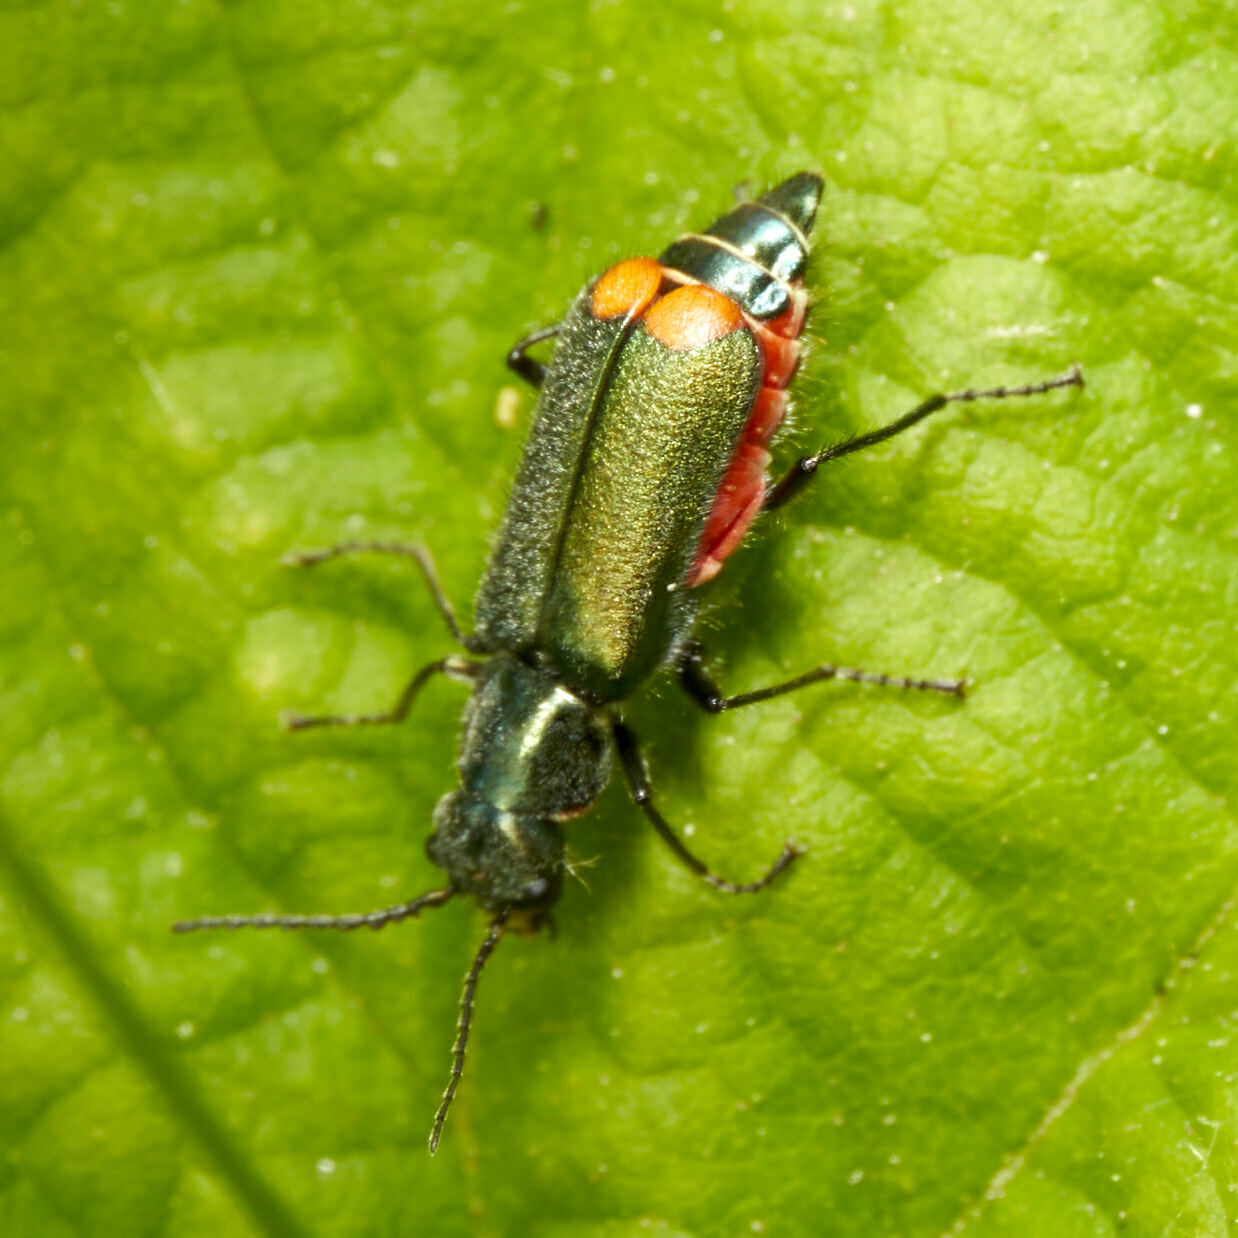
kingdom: Animalia
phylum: Arthropoda
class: Insecta
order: Coleoptera
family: Melyridae
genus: Malachius
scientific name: Malachius bipustulatus
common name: Malachite beetle
